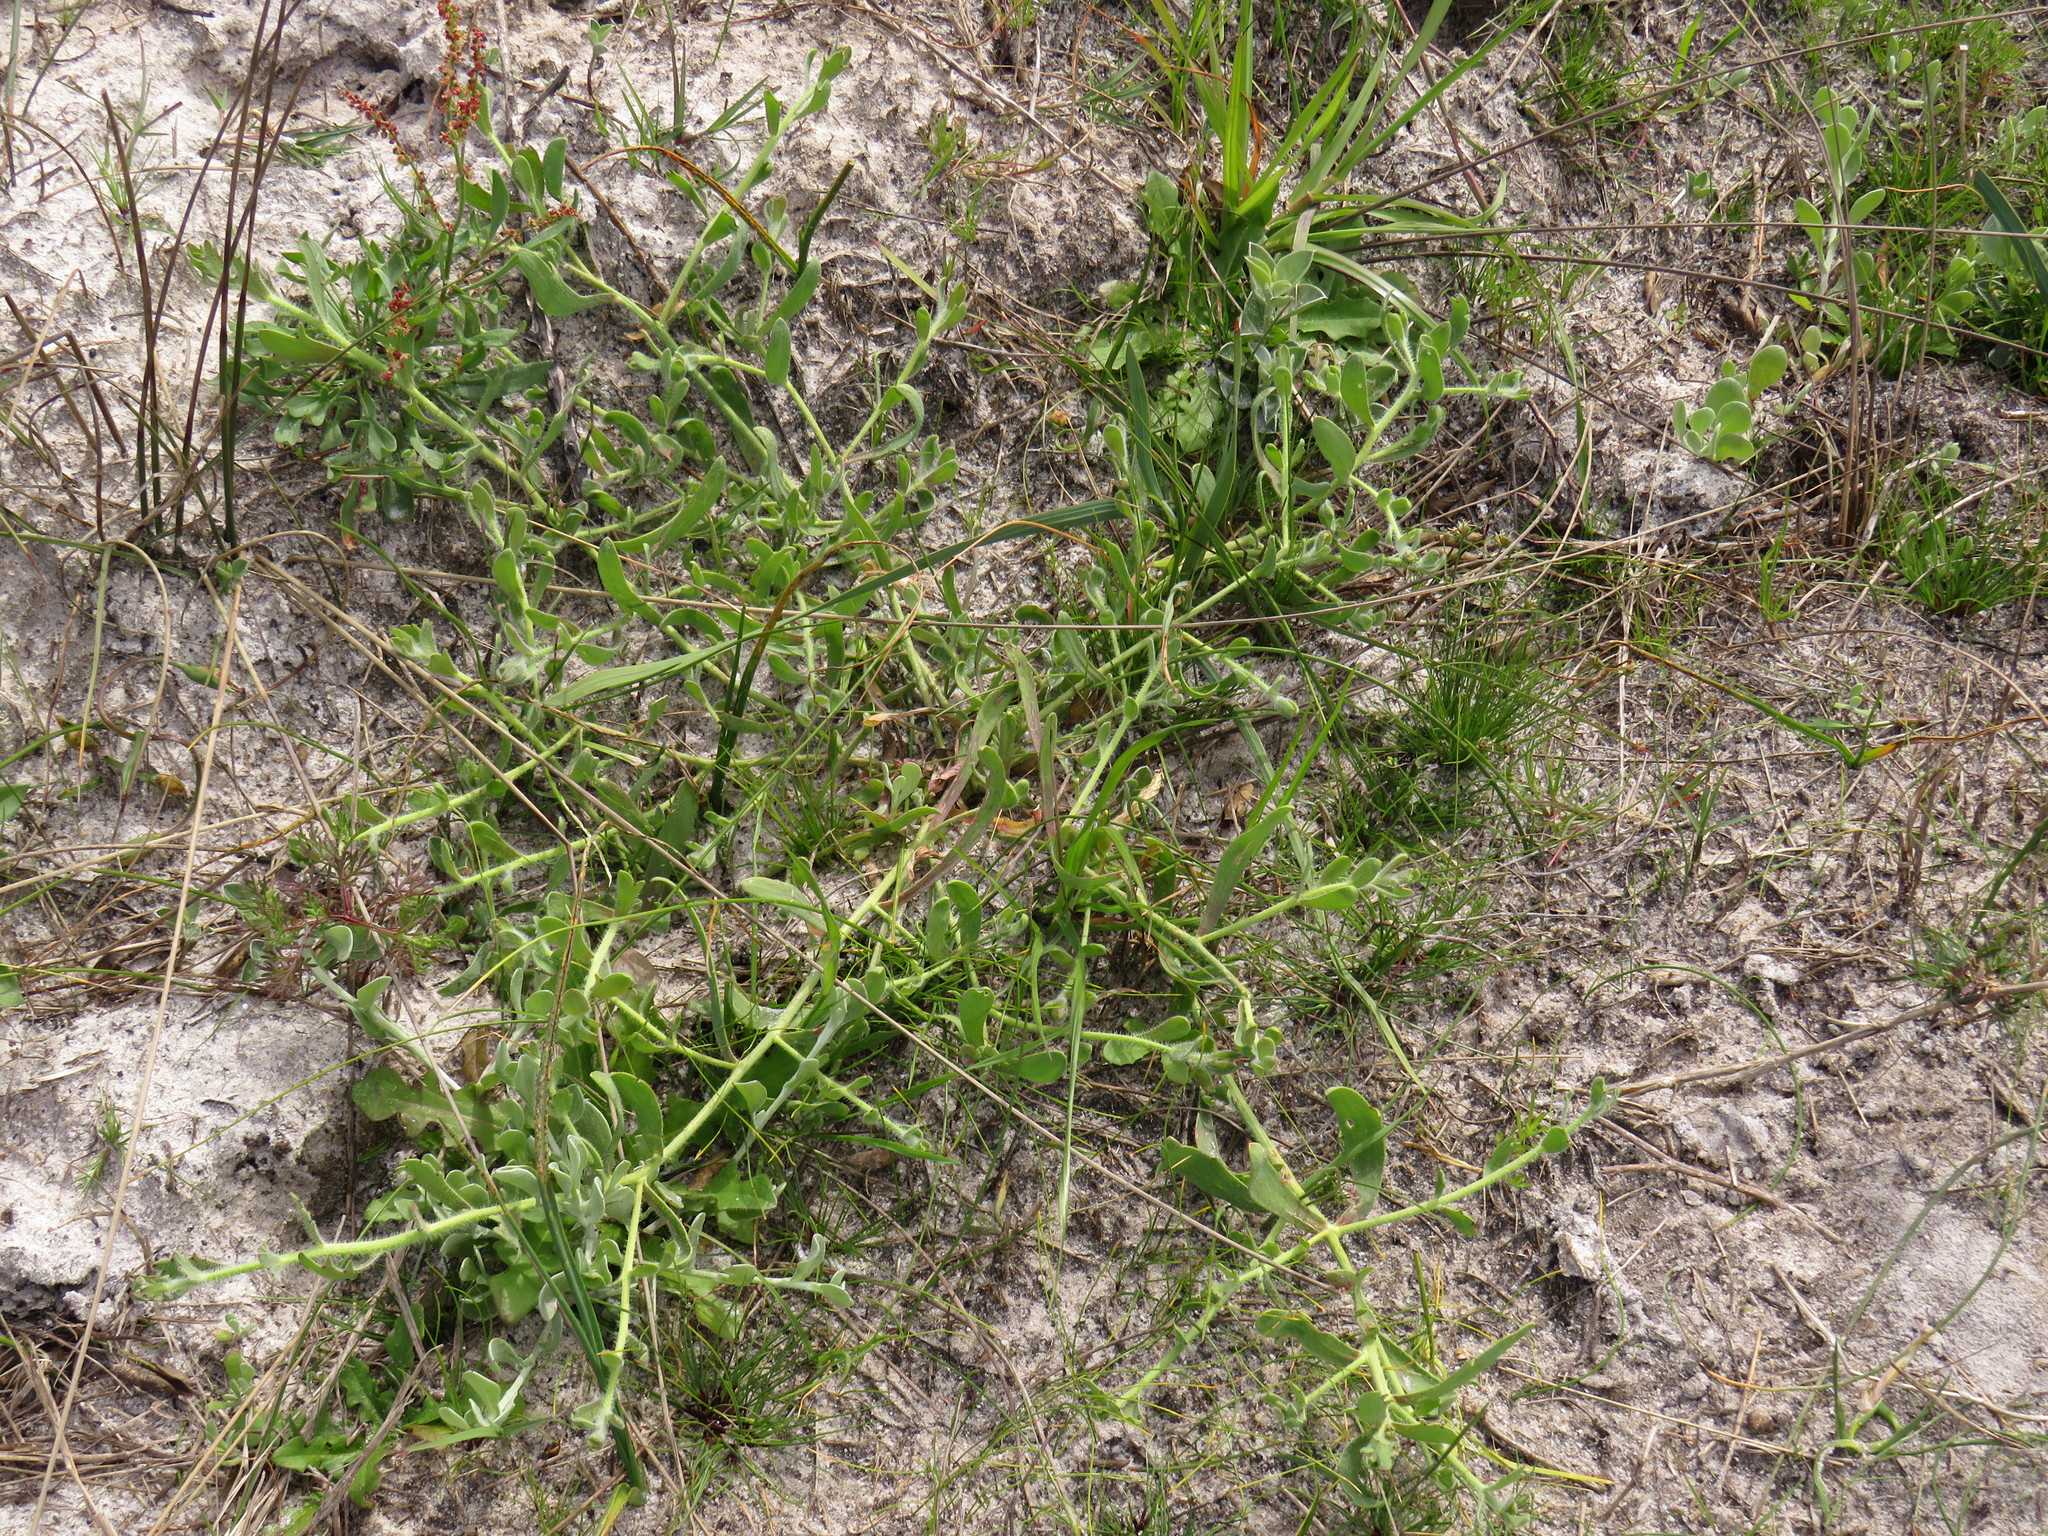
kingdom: Plantae
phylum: Tracheophyta
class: Magnoliopsida
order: Brassicales
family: Brassicaceae
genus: Heliophila
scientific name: Heliophila africana
